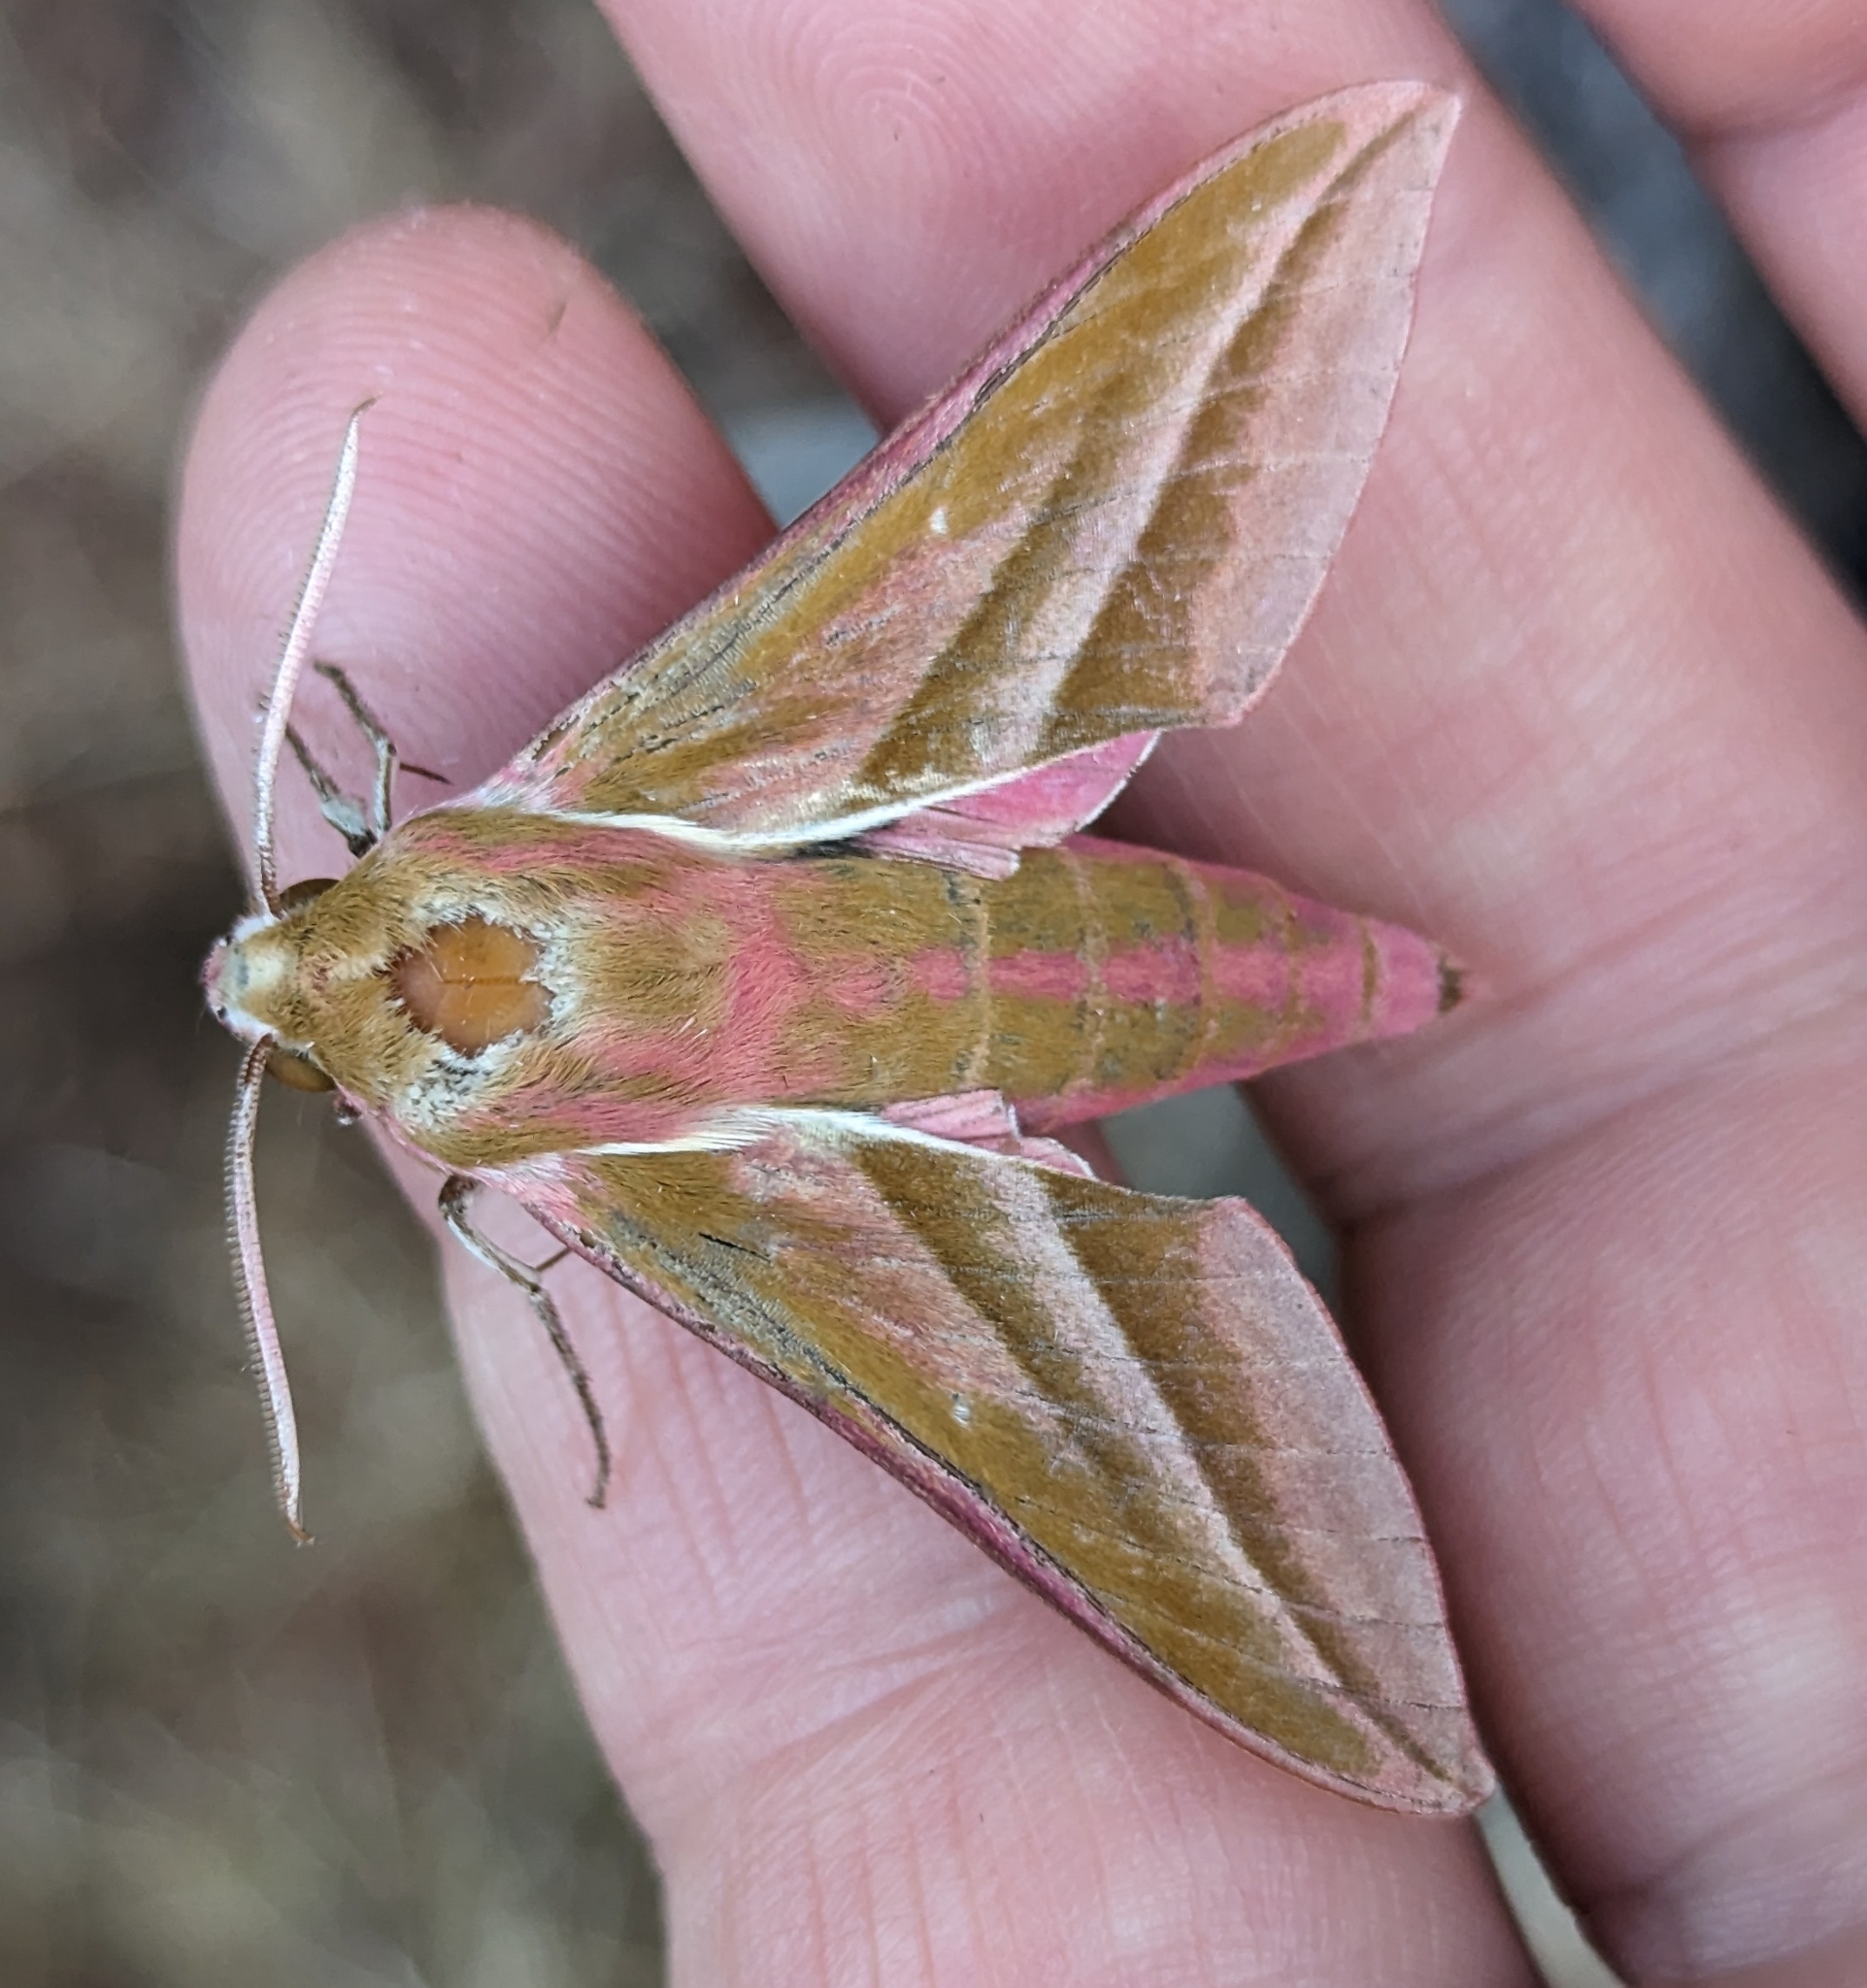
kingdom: Animalia
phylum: Arthropoda
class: Insecta
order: Lepidoptera
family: Sphingidae
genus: Deilephila
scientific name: Deilephila elpenor
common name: Elephant hawk-moth
